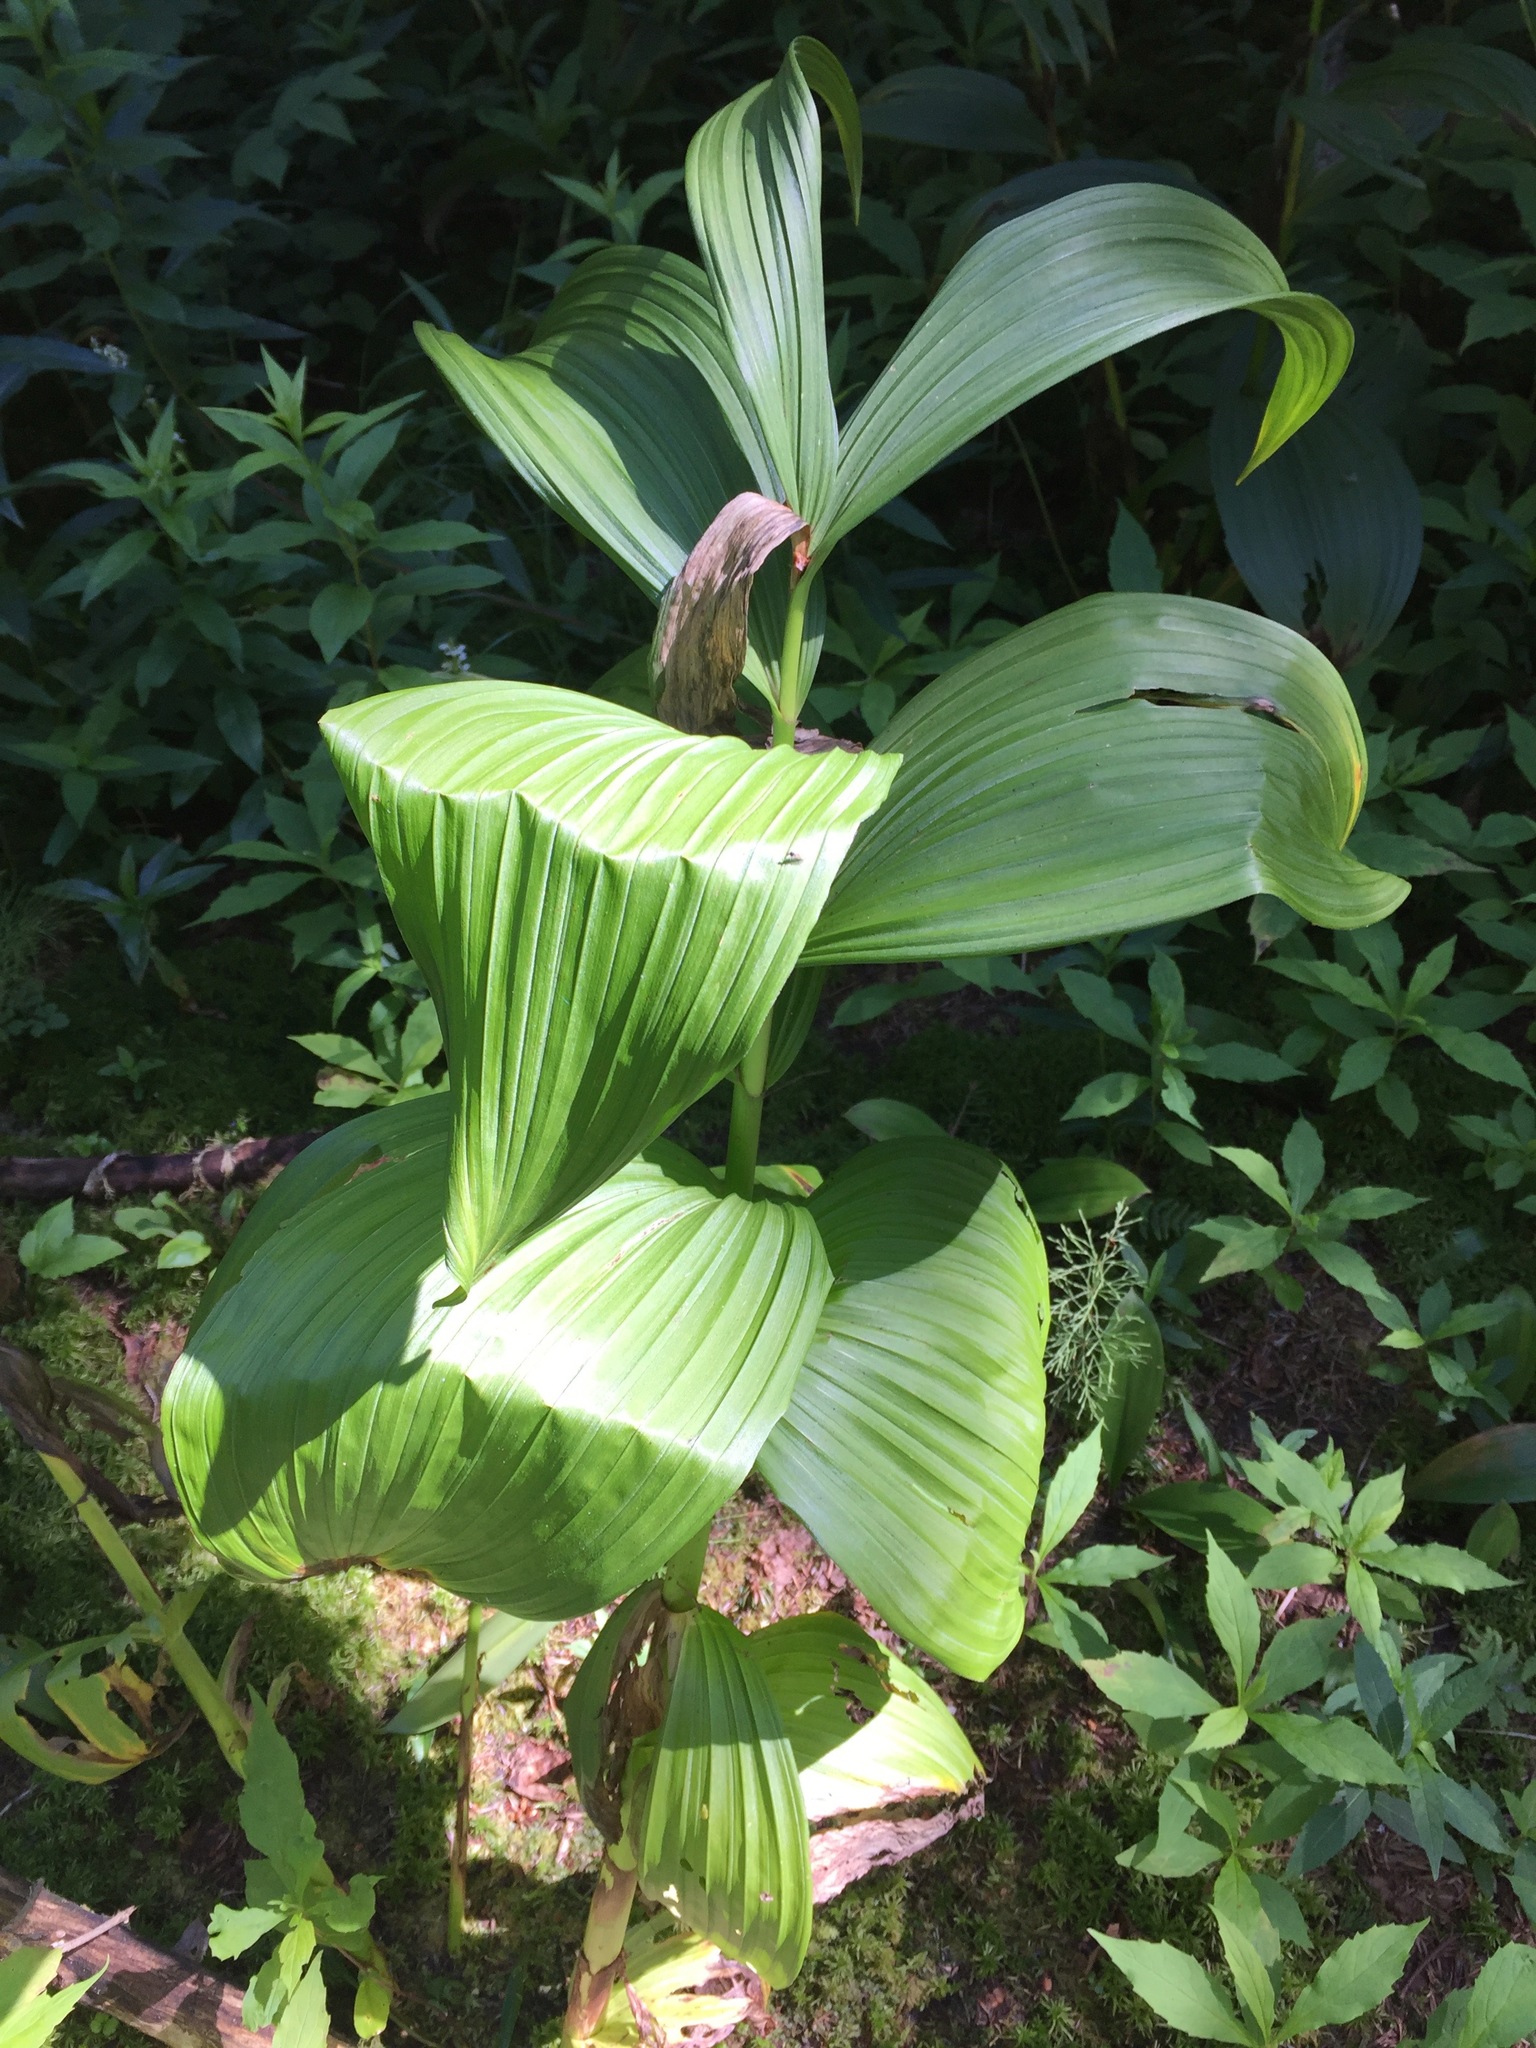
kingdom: Plantae
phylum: Tracheophyta
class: Liliopsida
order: Liliales
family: Melanthiaceae
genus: Veratrum
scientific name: Veratrum viride
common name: American false hellebore
